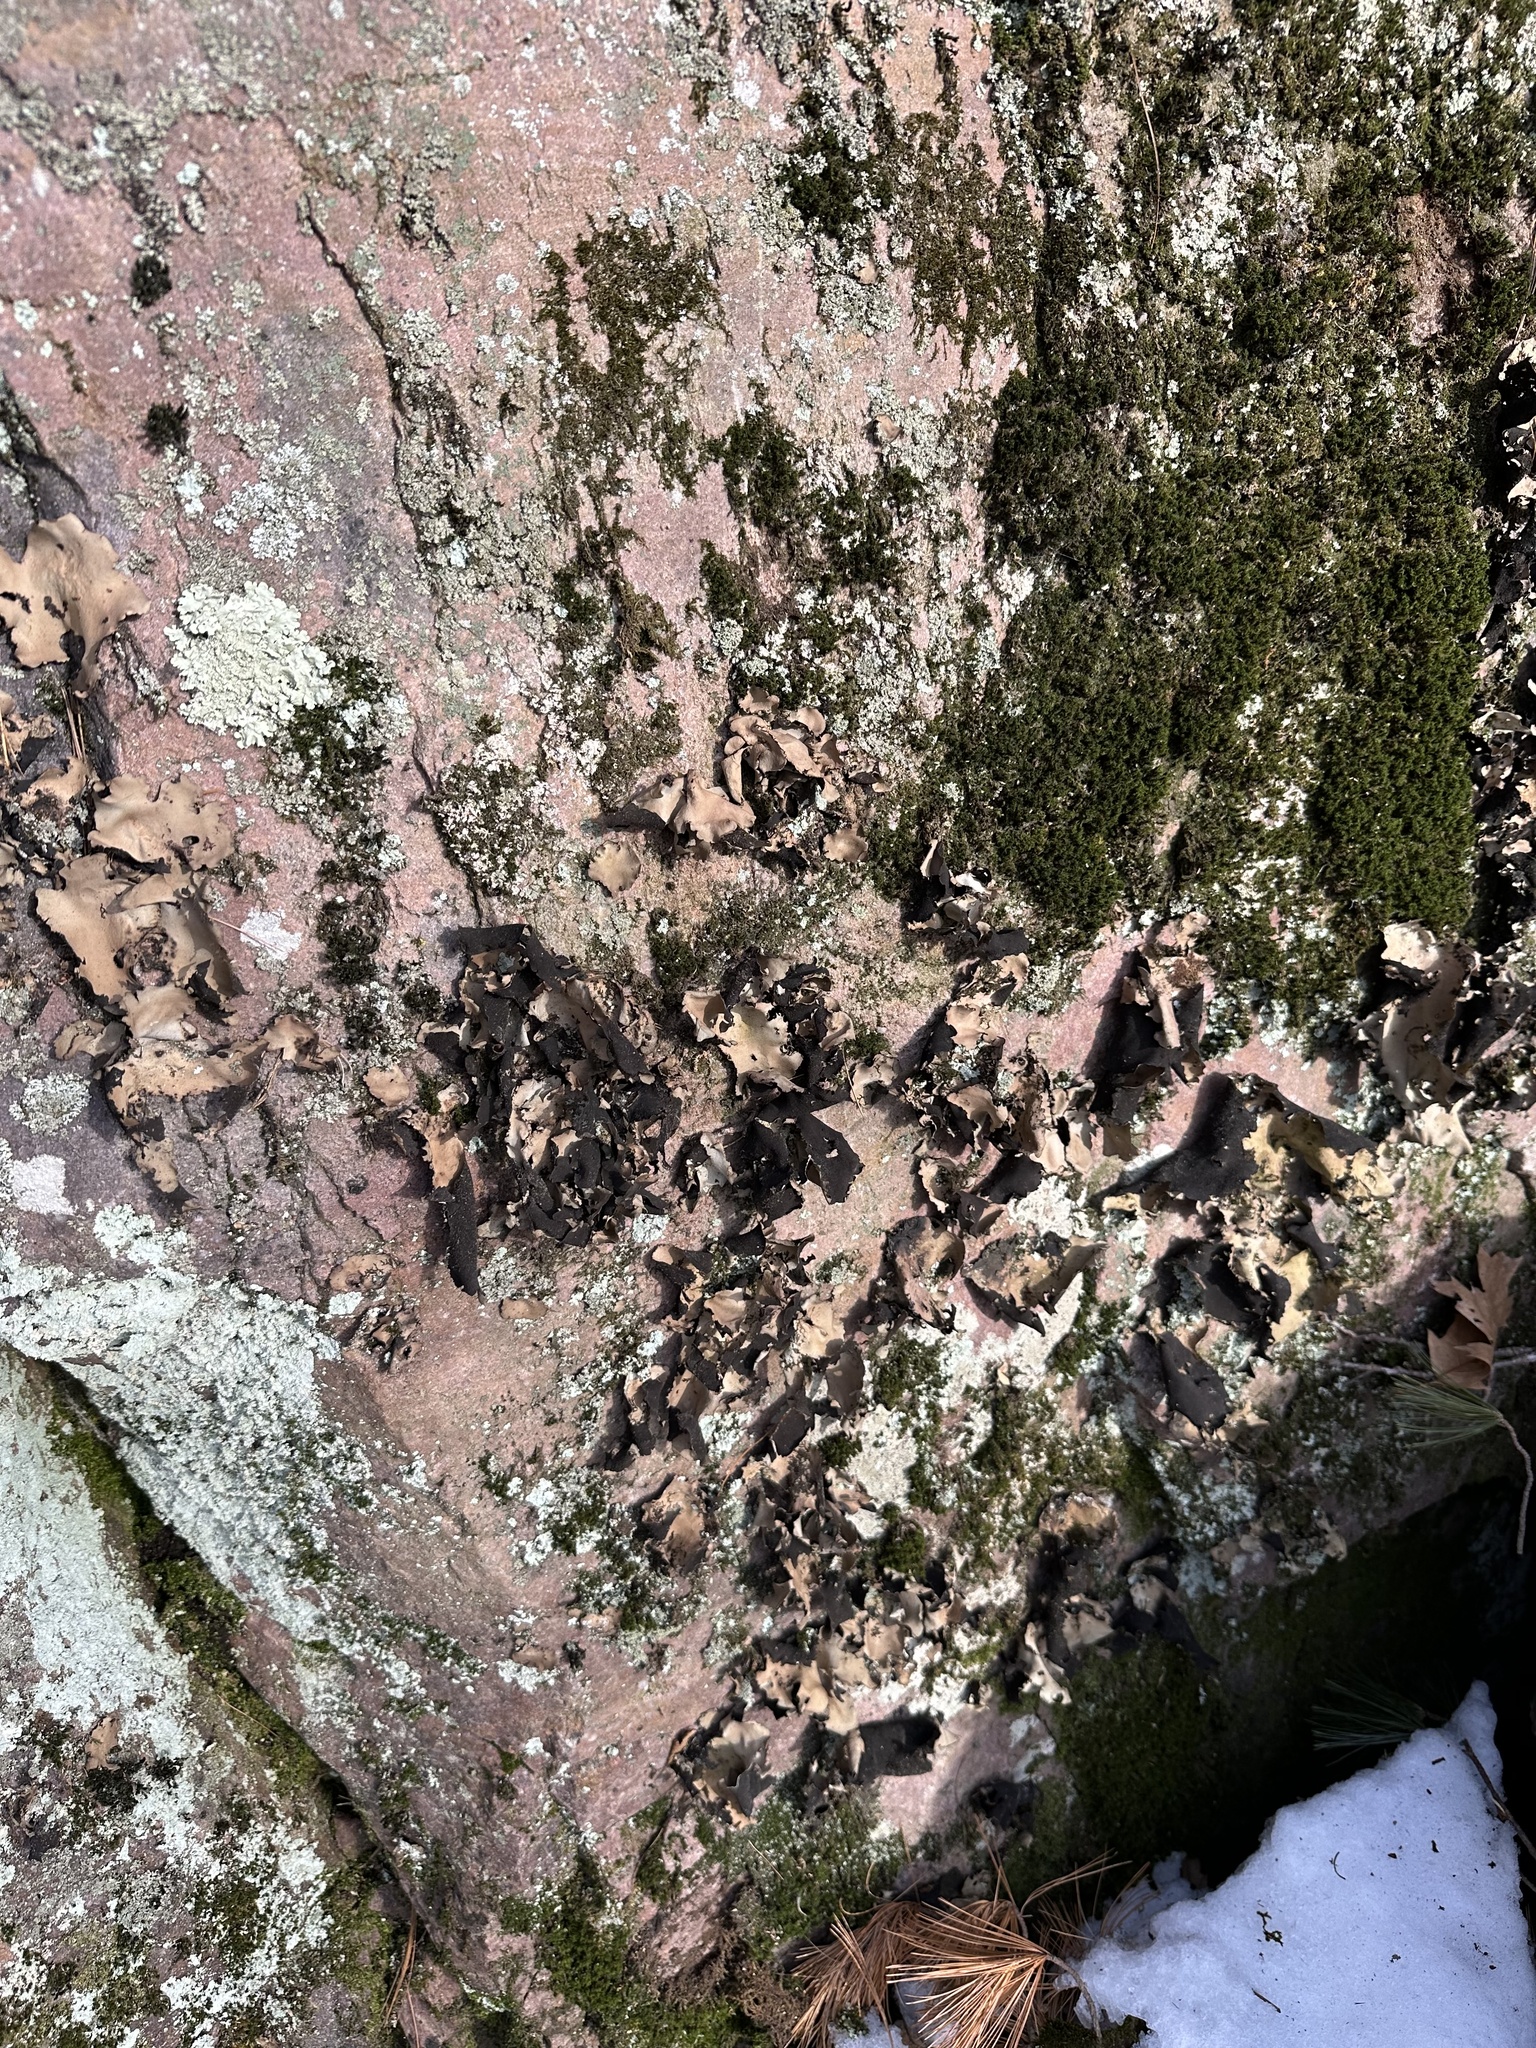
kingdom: Fungi
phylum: Ascomycota
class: Lecanoromycetes
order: Umbilicariales
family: Umbilicariaceae
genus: Umbilicaria
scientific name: Umbilicaria mammulata
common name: Smooth rock tripe
